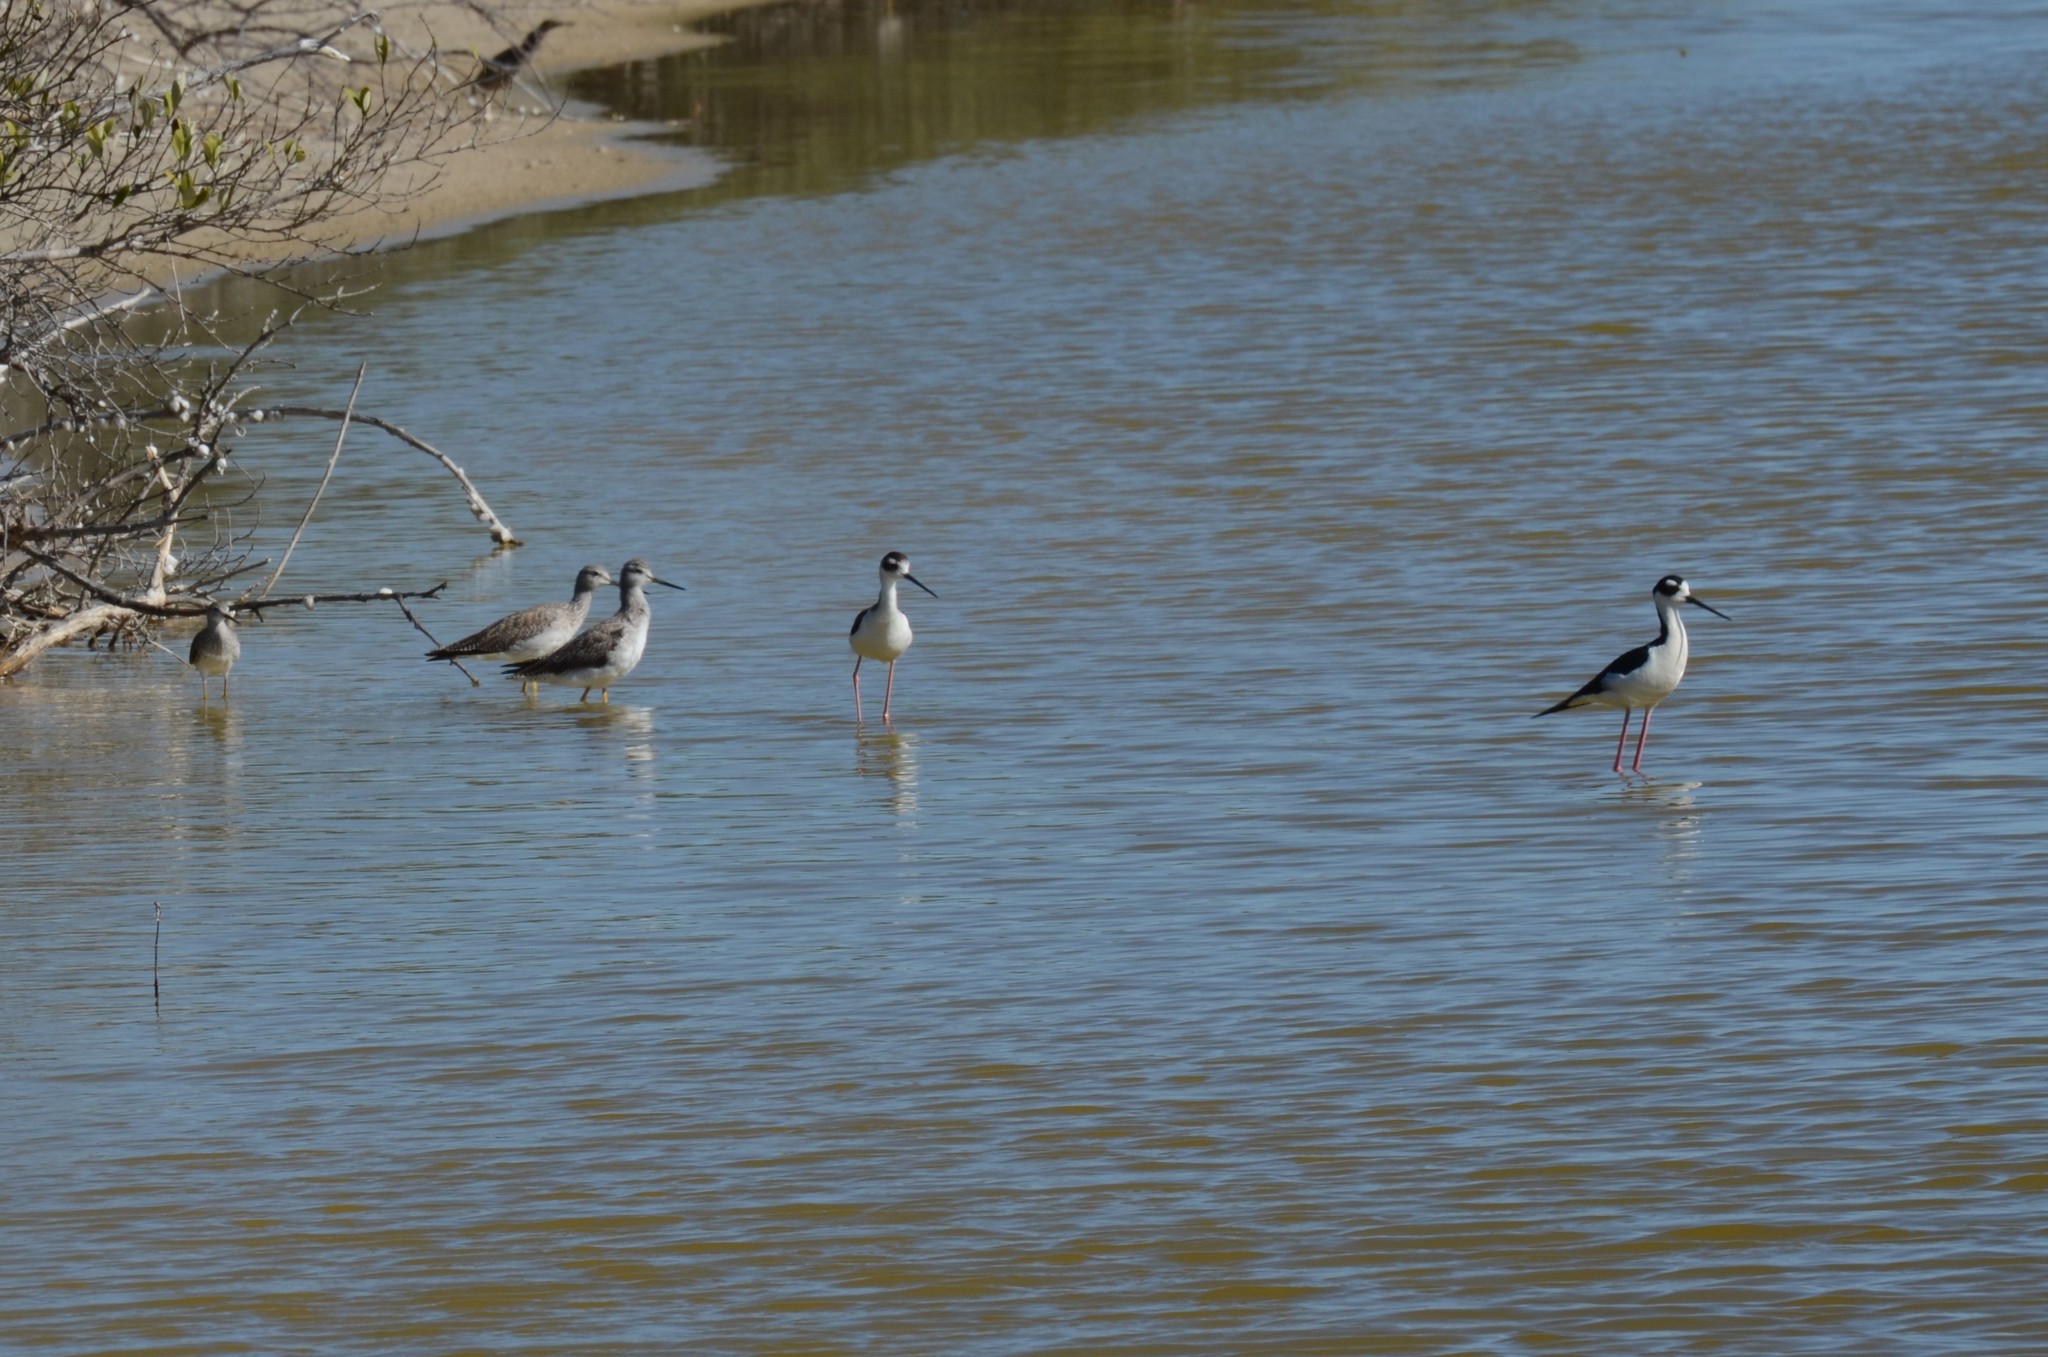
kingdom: Animalia
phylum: Chordata
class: Aves
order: Charadriiformes
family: Recurvirostridae
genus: Himantopus
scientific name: Himantopus mexicanus
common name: Black-necked stilt
